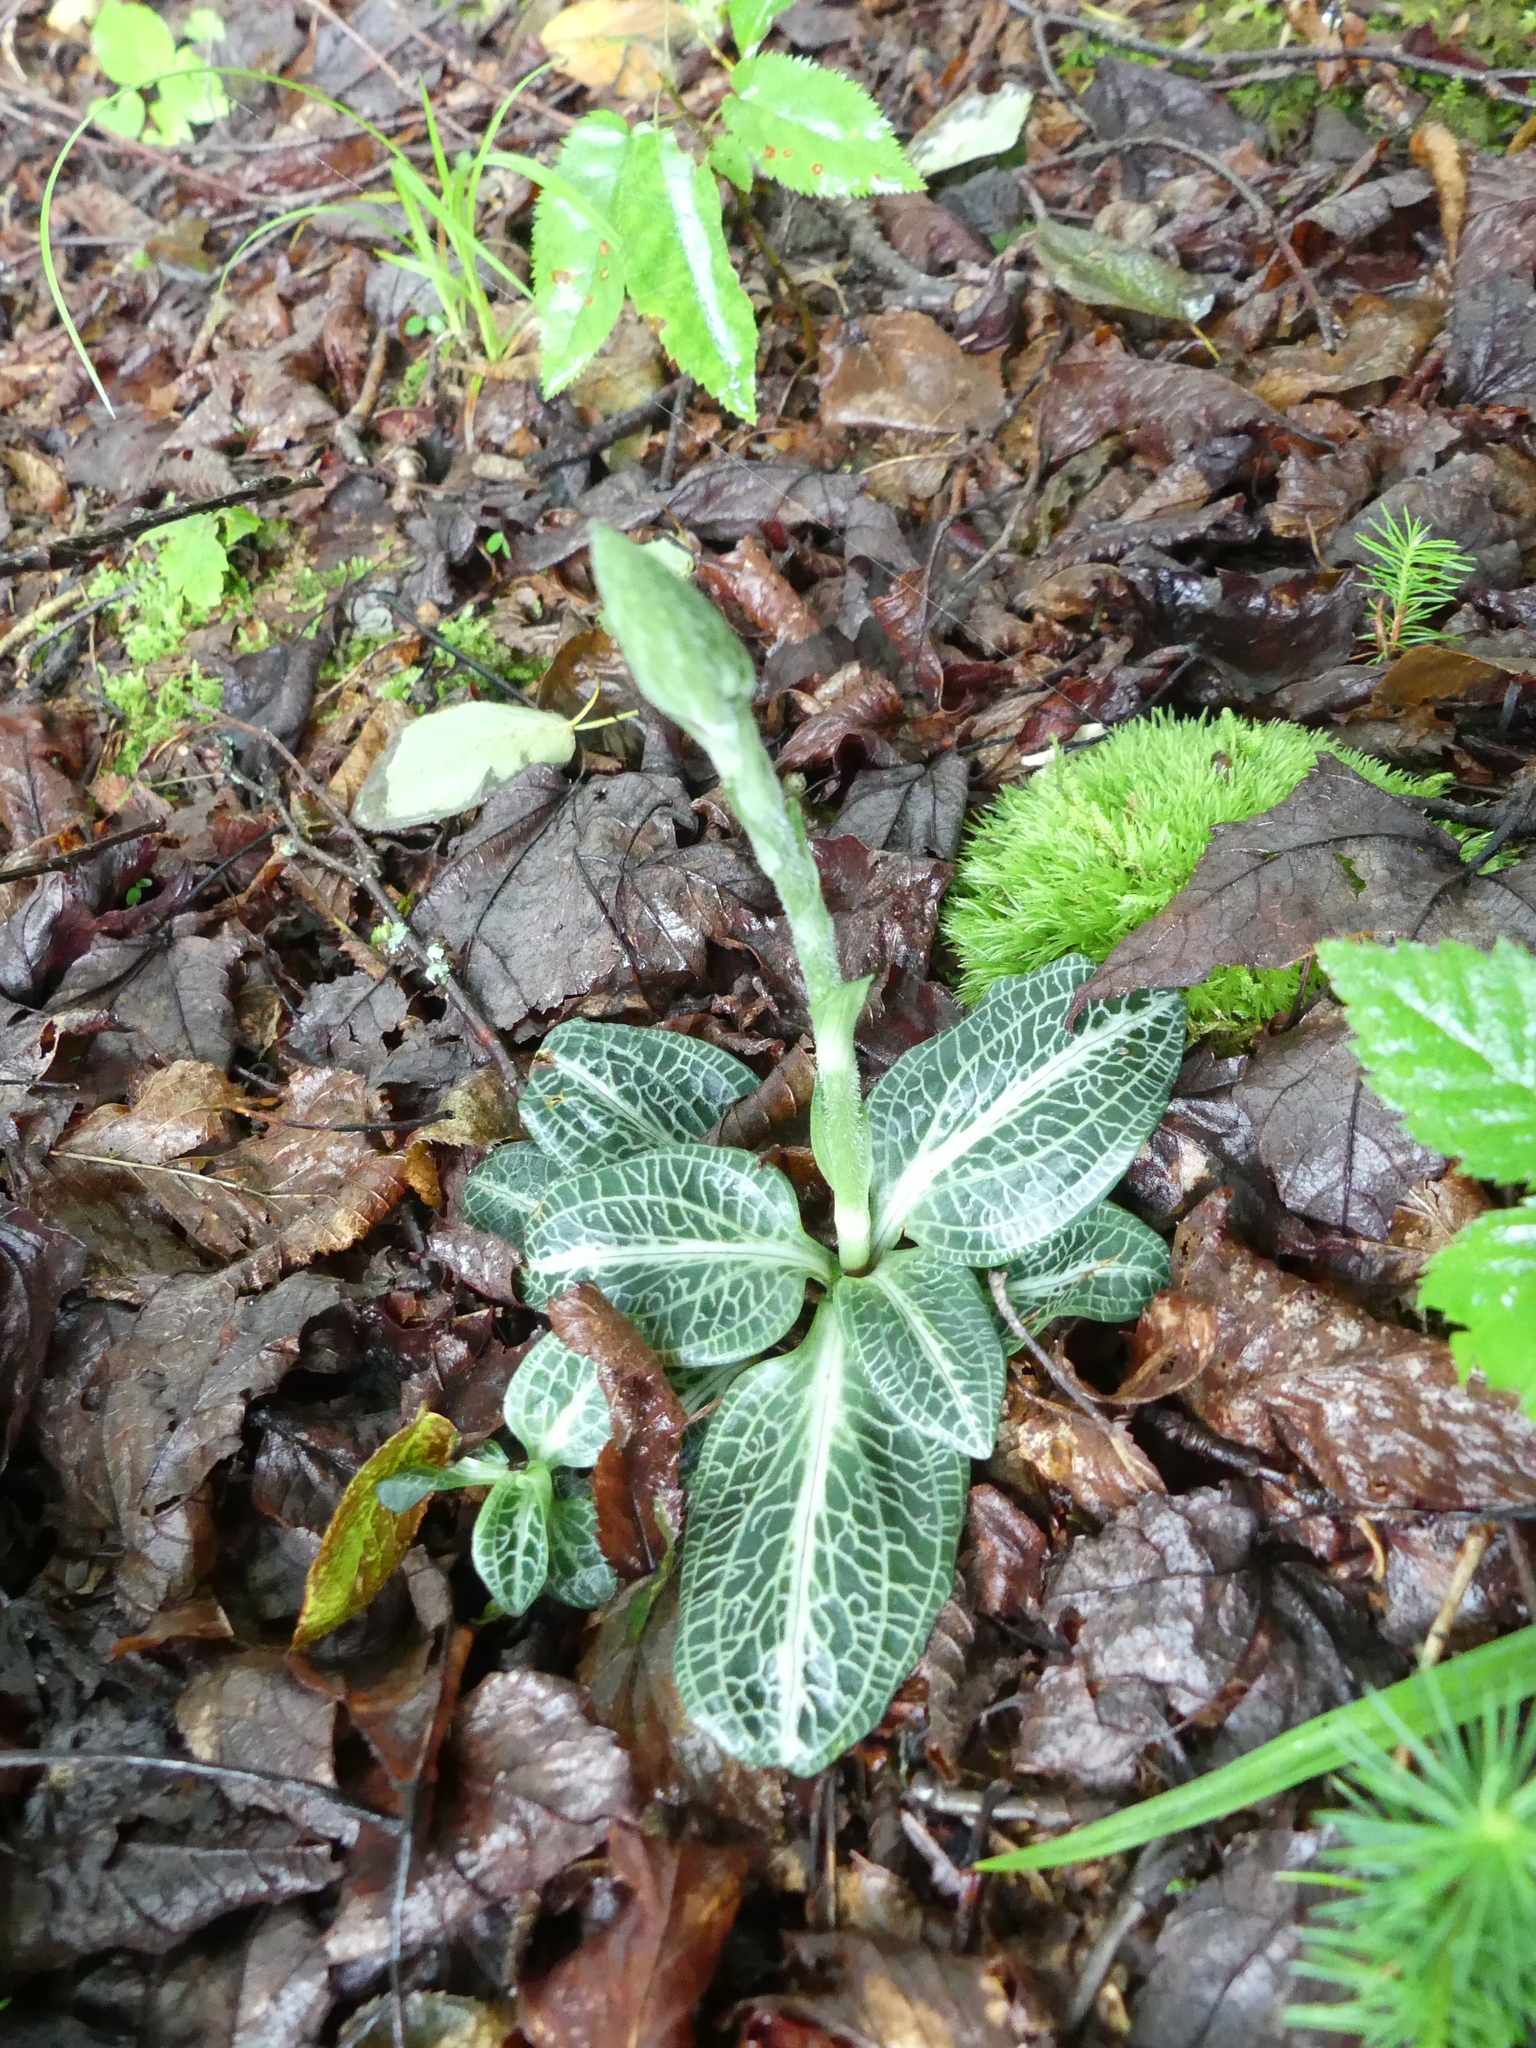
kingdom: Plantae
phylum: Tracheophyta
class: Liliopsida
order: Asparagales
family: Orchidaceae
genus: Goodyera
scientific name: Goodyera pubescens
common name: Downy rattlesnake-plantain
